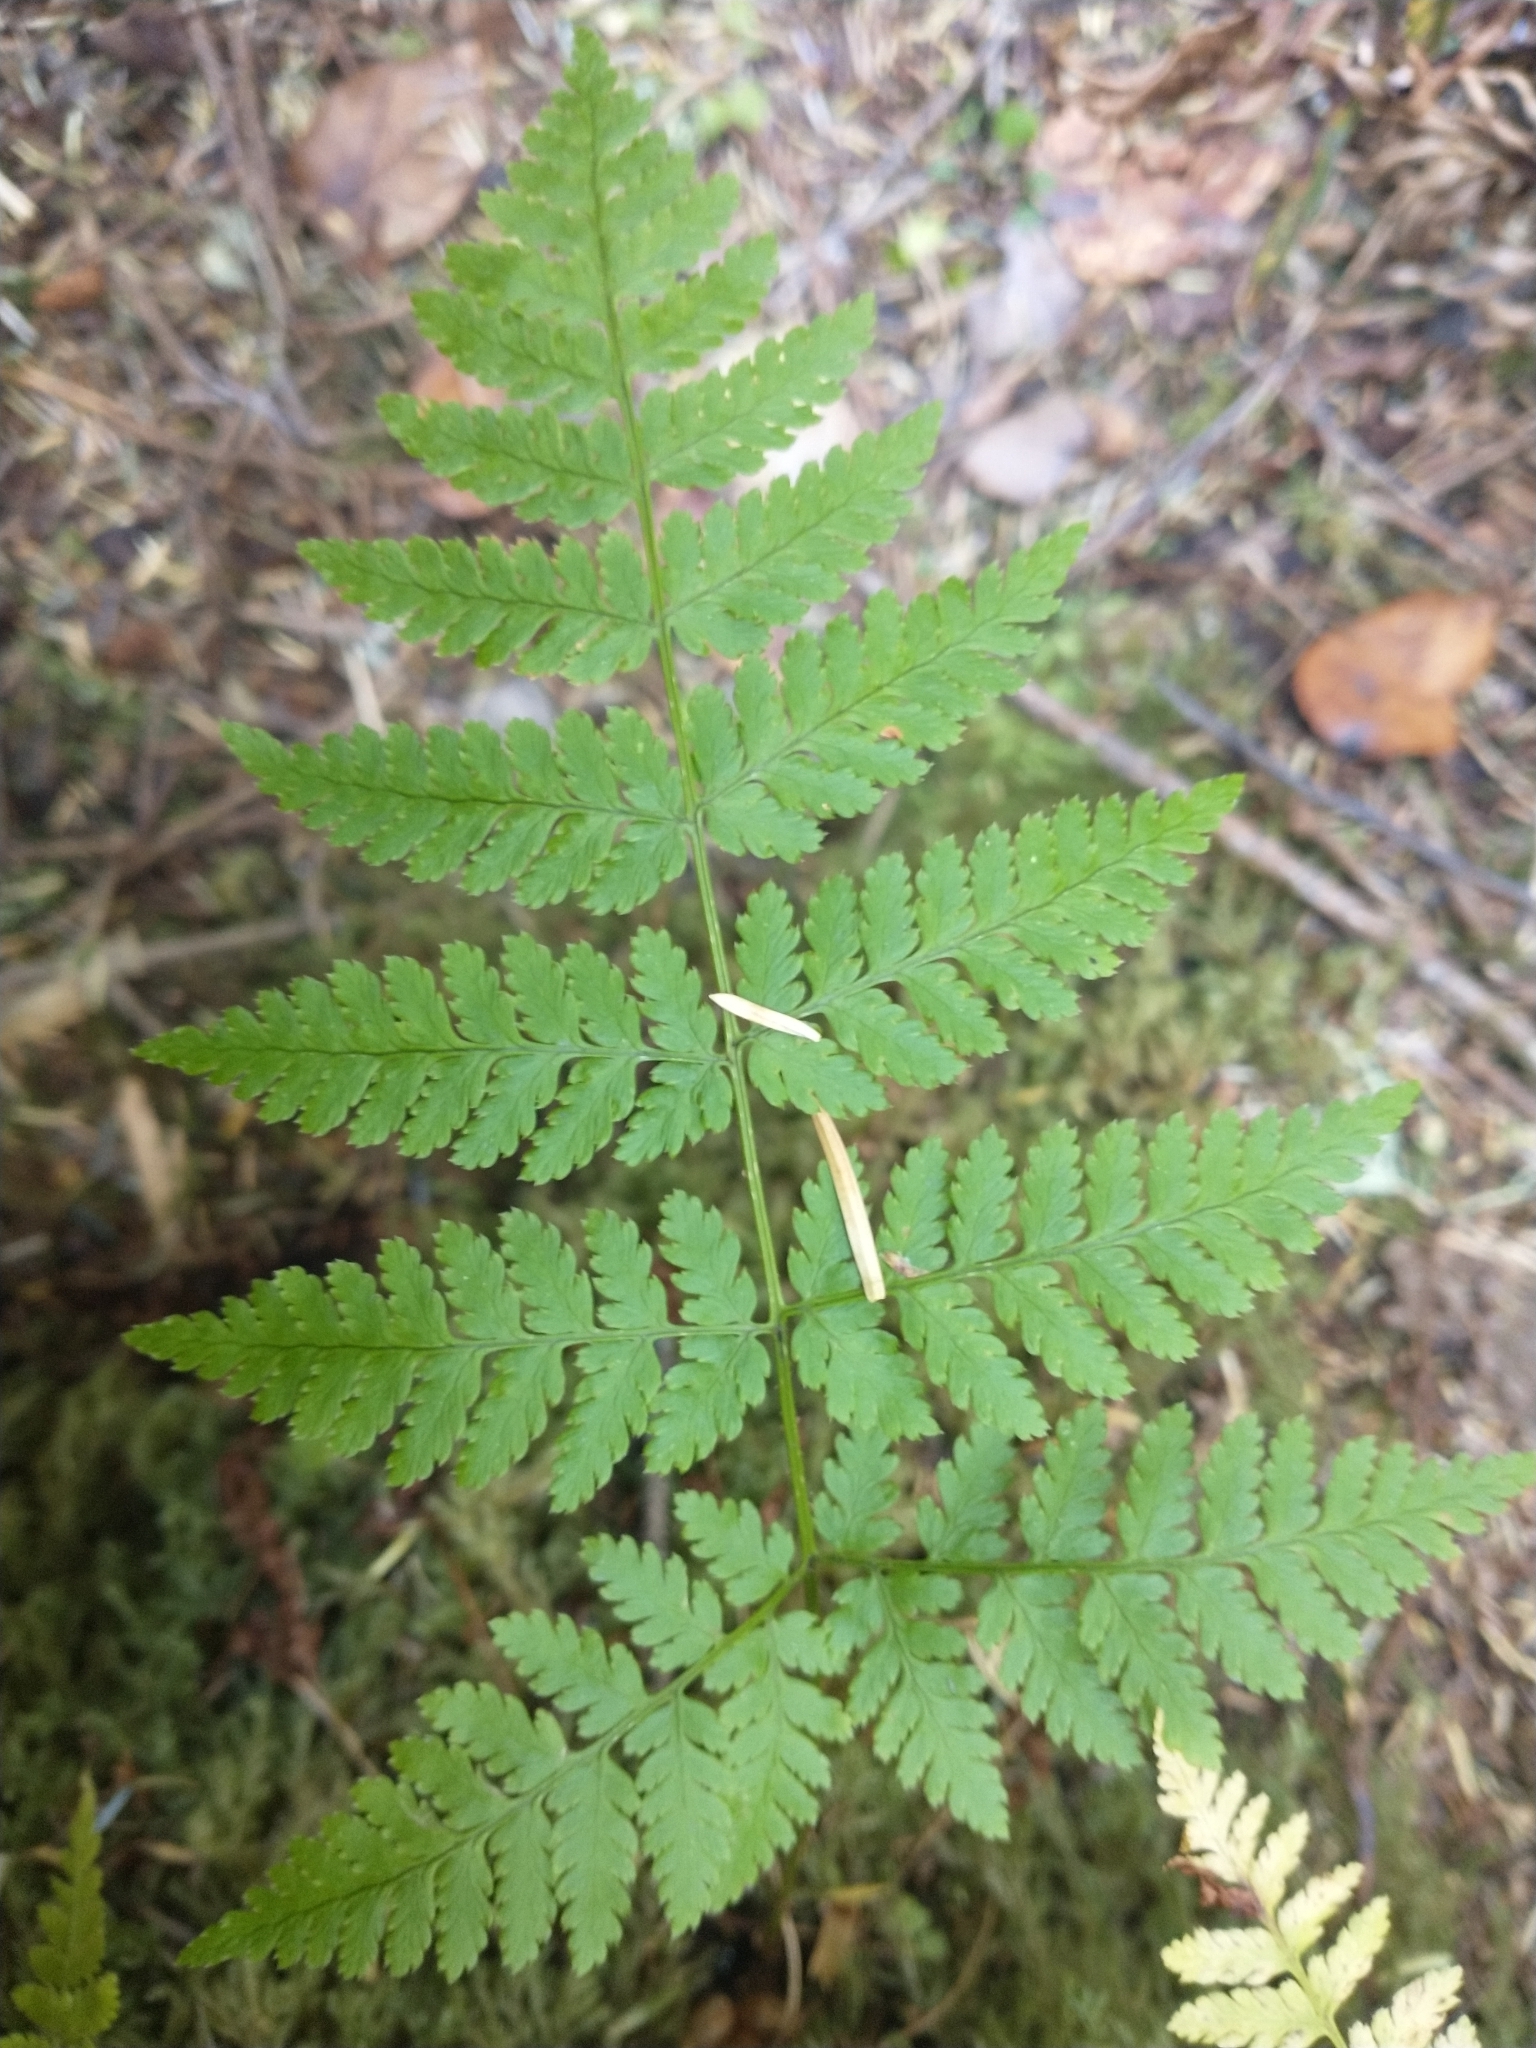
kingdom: Plantae
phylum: Tracheophyta
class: Polypodiopsida
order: Polypodiales
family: Dryopteridaceae
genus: Dryopteris
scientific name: Dryopteris expansa
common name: Northern buckler fern
